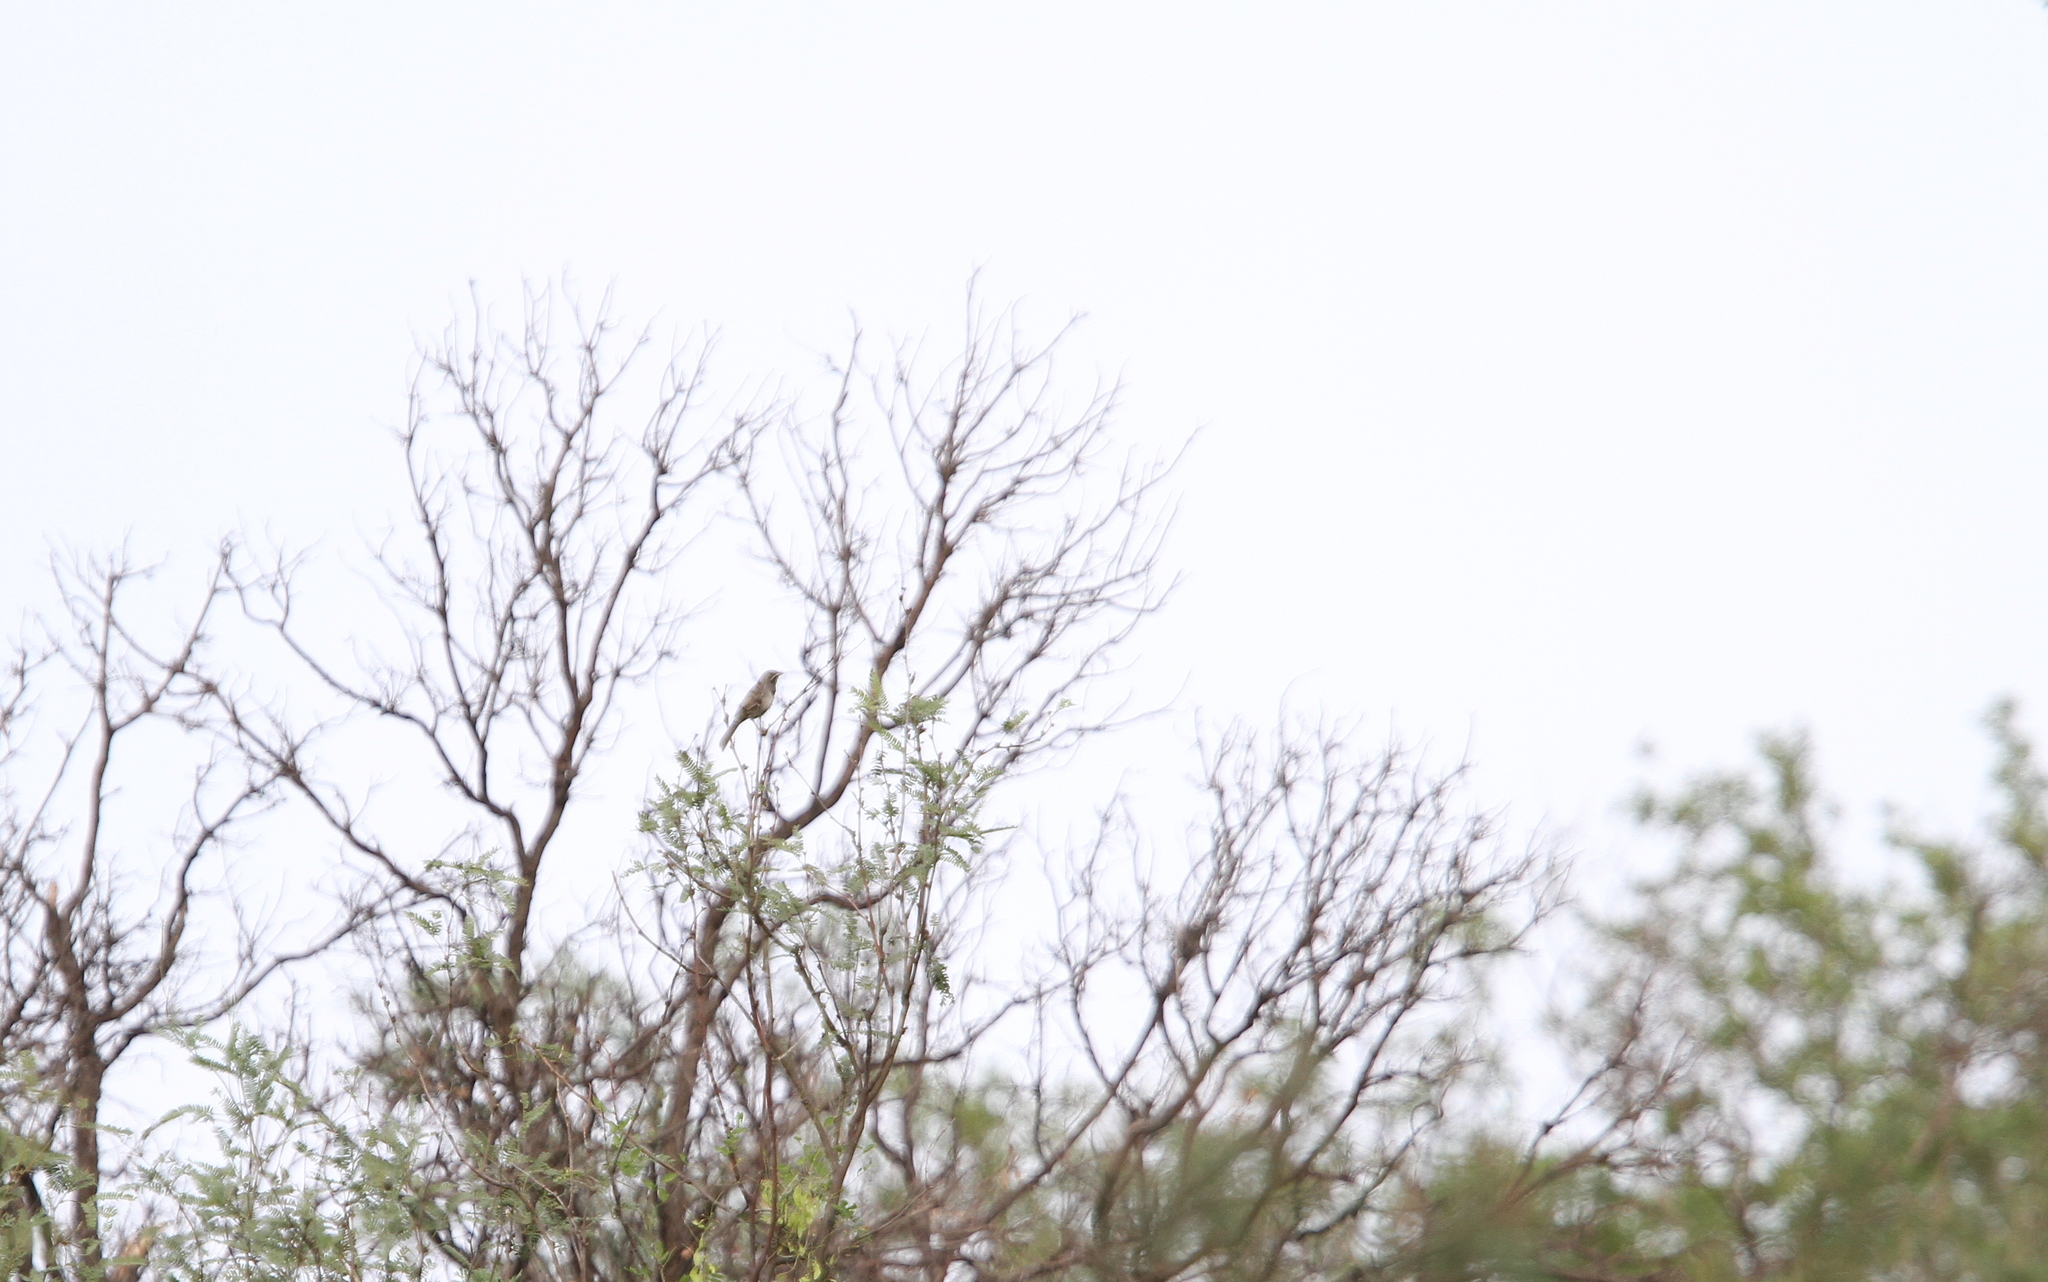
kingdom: Animalia
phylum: Chordata
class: Aves
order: Passeriformes
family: Passerellidae
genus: Amphispizopsis
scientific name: Amphispizopsis quinquestriata
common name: Five-striped sparrow
